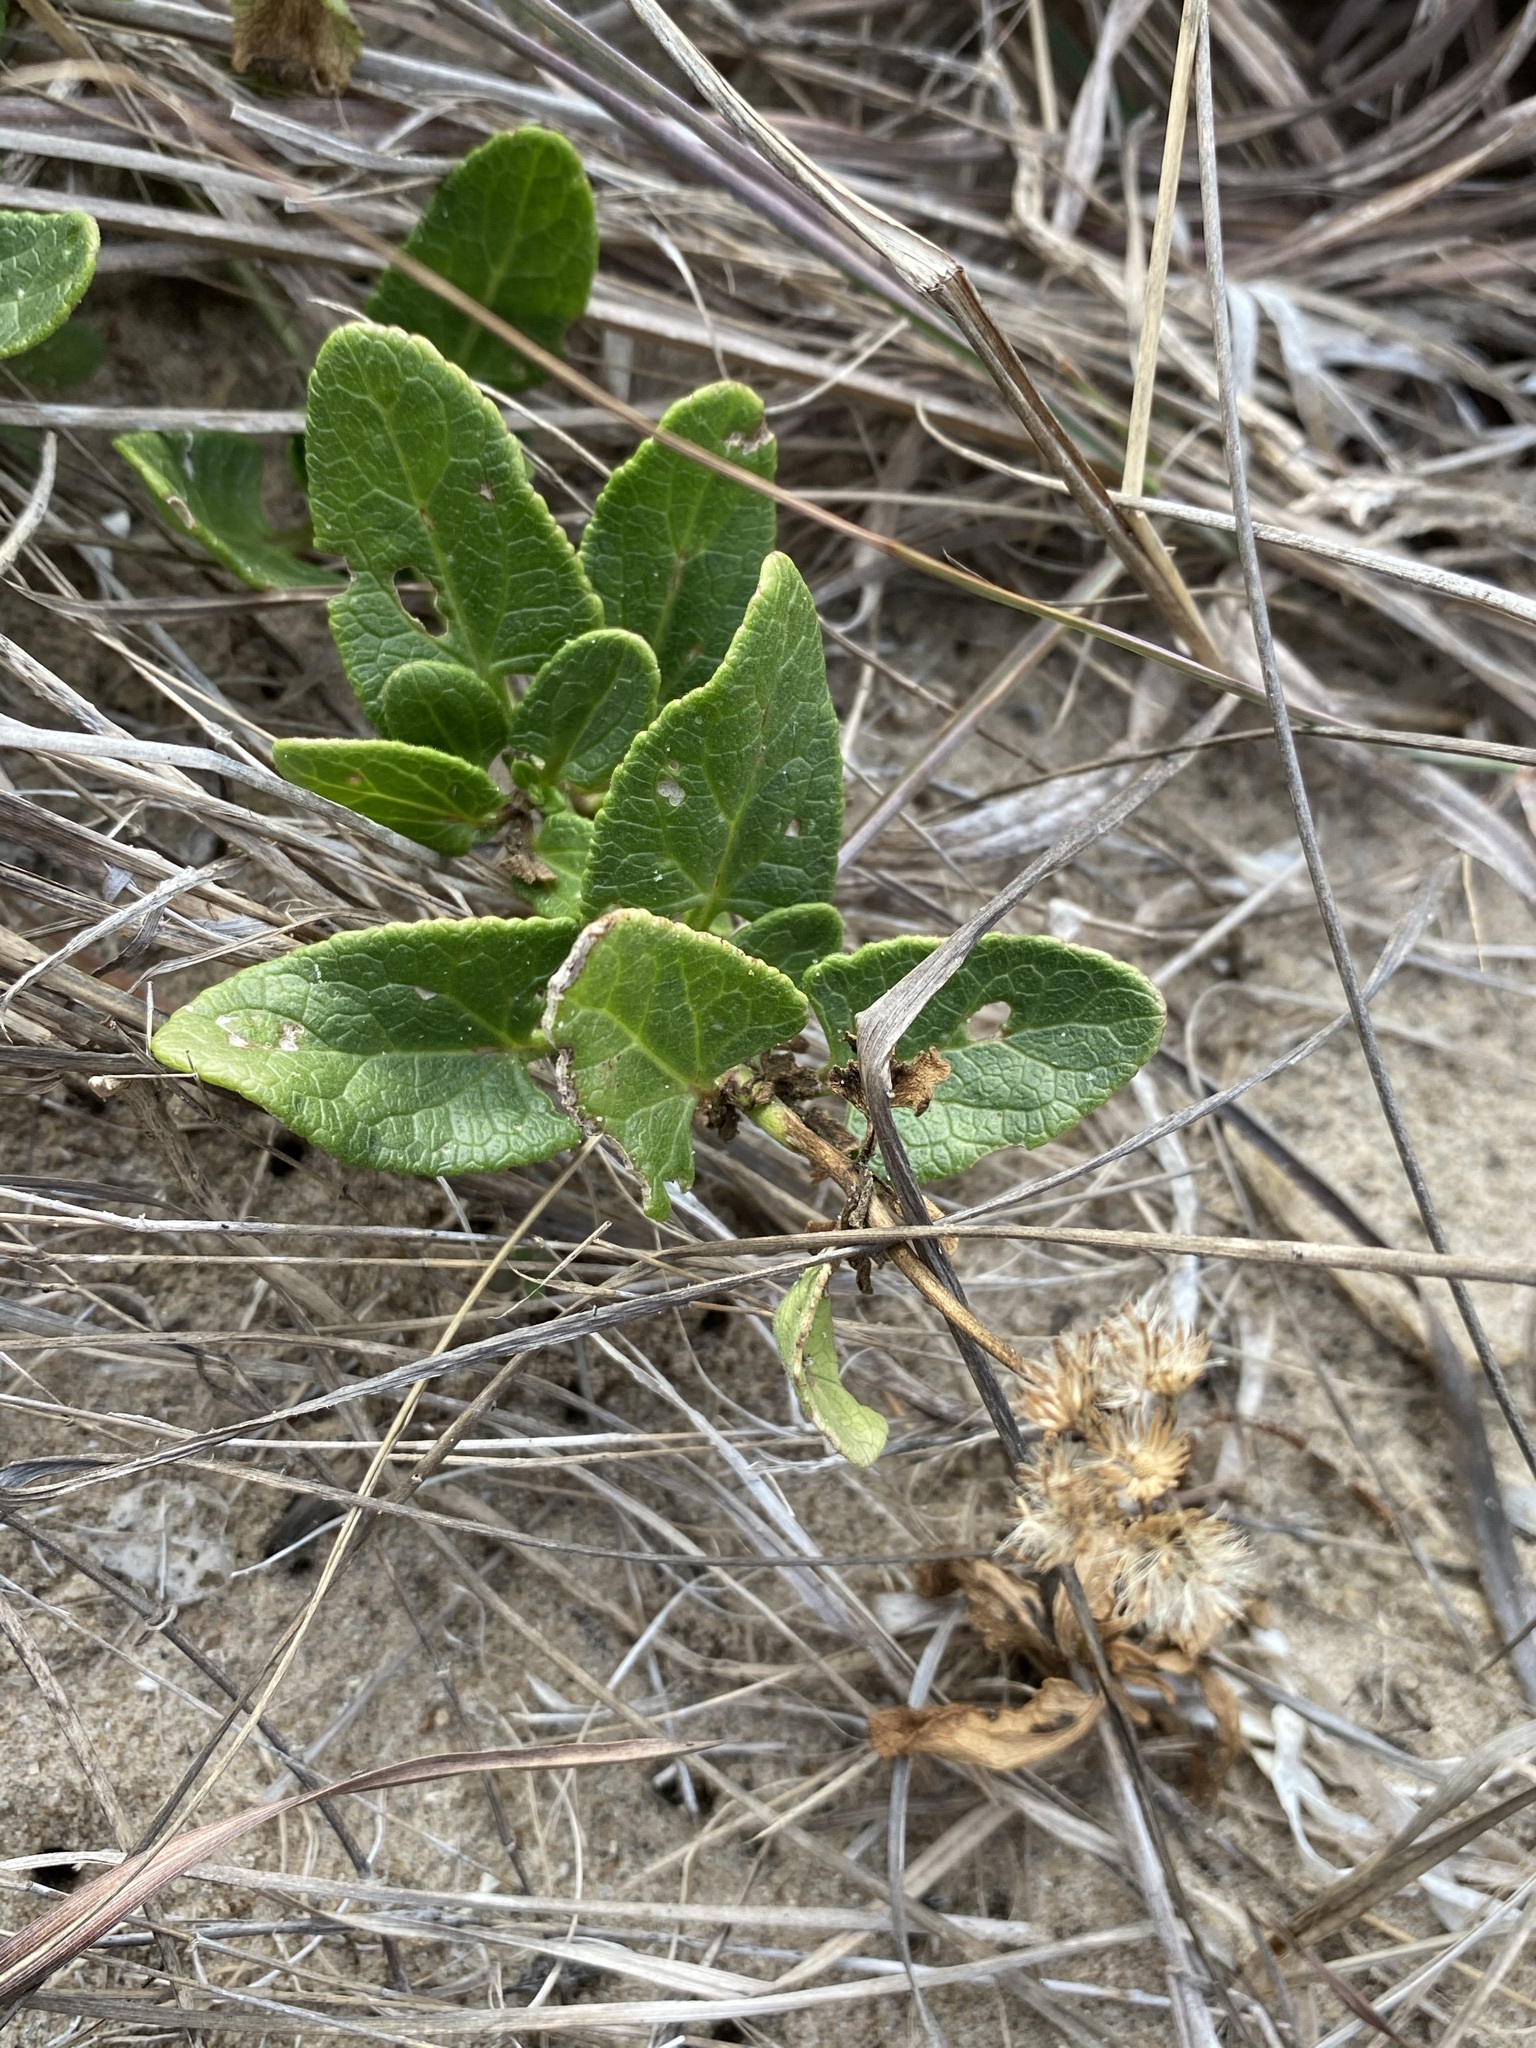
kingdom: Plantae
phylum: Tracheophyta
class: Magnoliopsida
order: Asterales
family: Asteraceae
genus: Conoclinium
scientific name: Conoclinium betonicifolium
